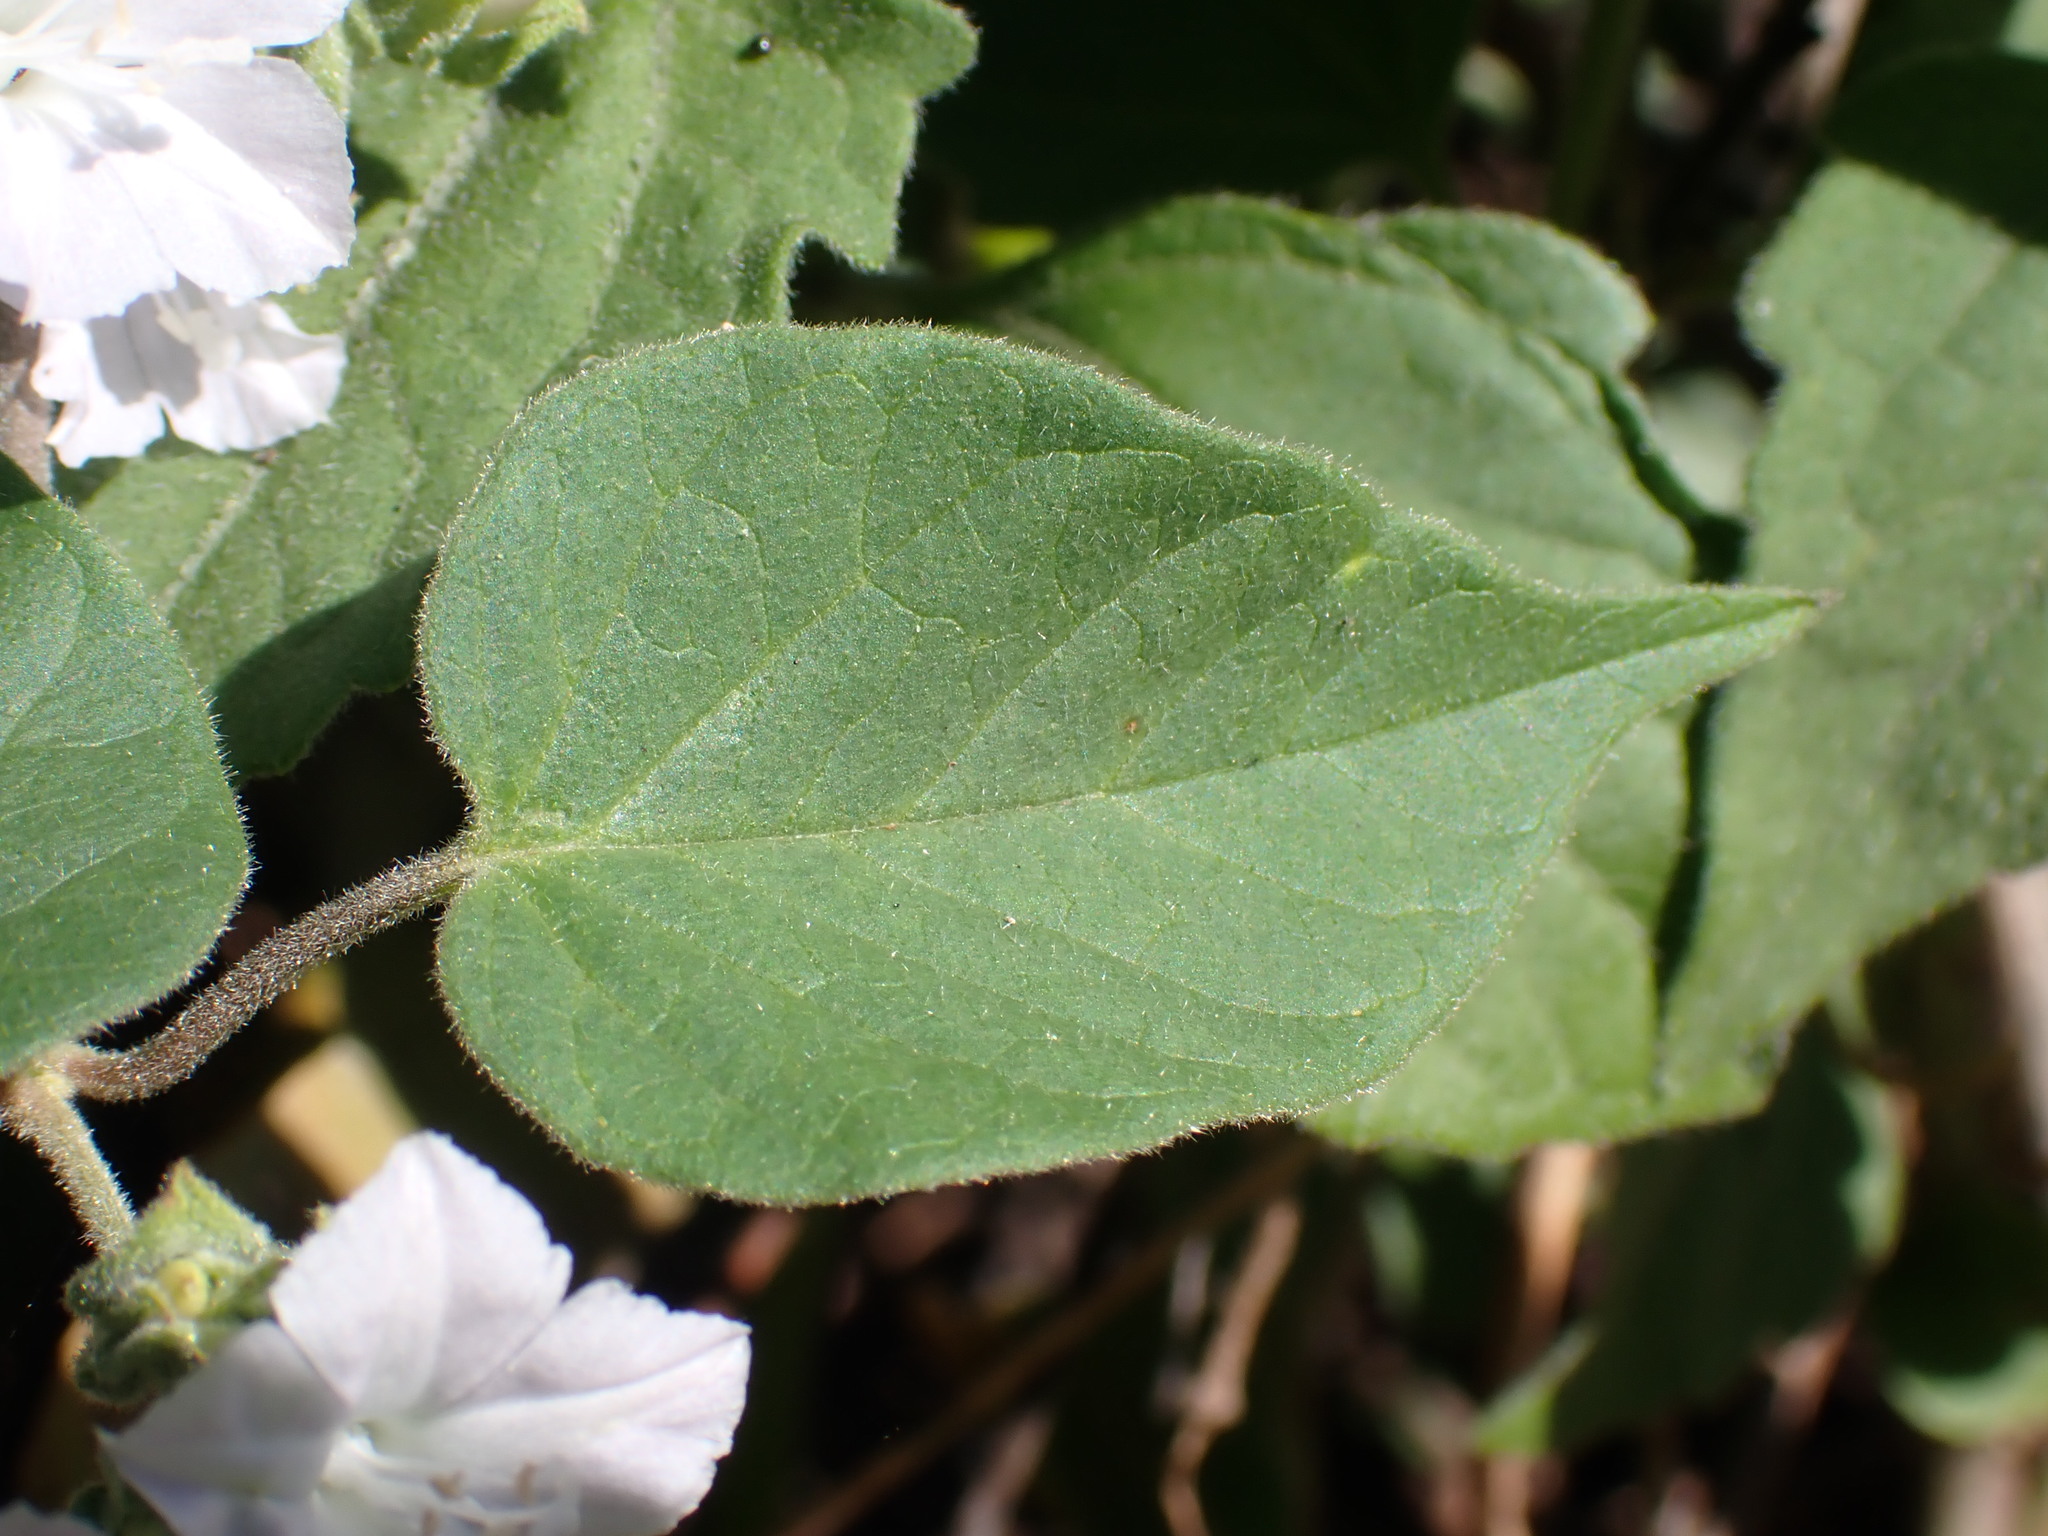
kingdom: Plantae
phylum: Tracheophyta
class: Magnoliopsida
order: Solanales
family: Convolvulaceae
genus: Jacquemontia
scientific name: Jacquemontia paniculata
